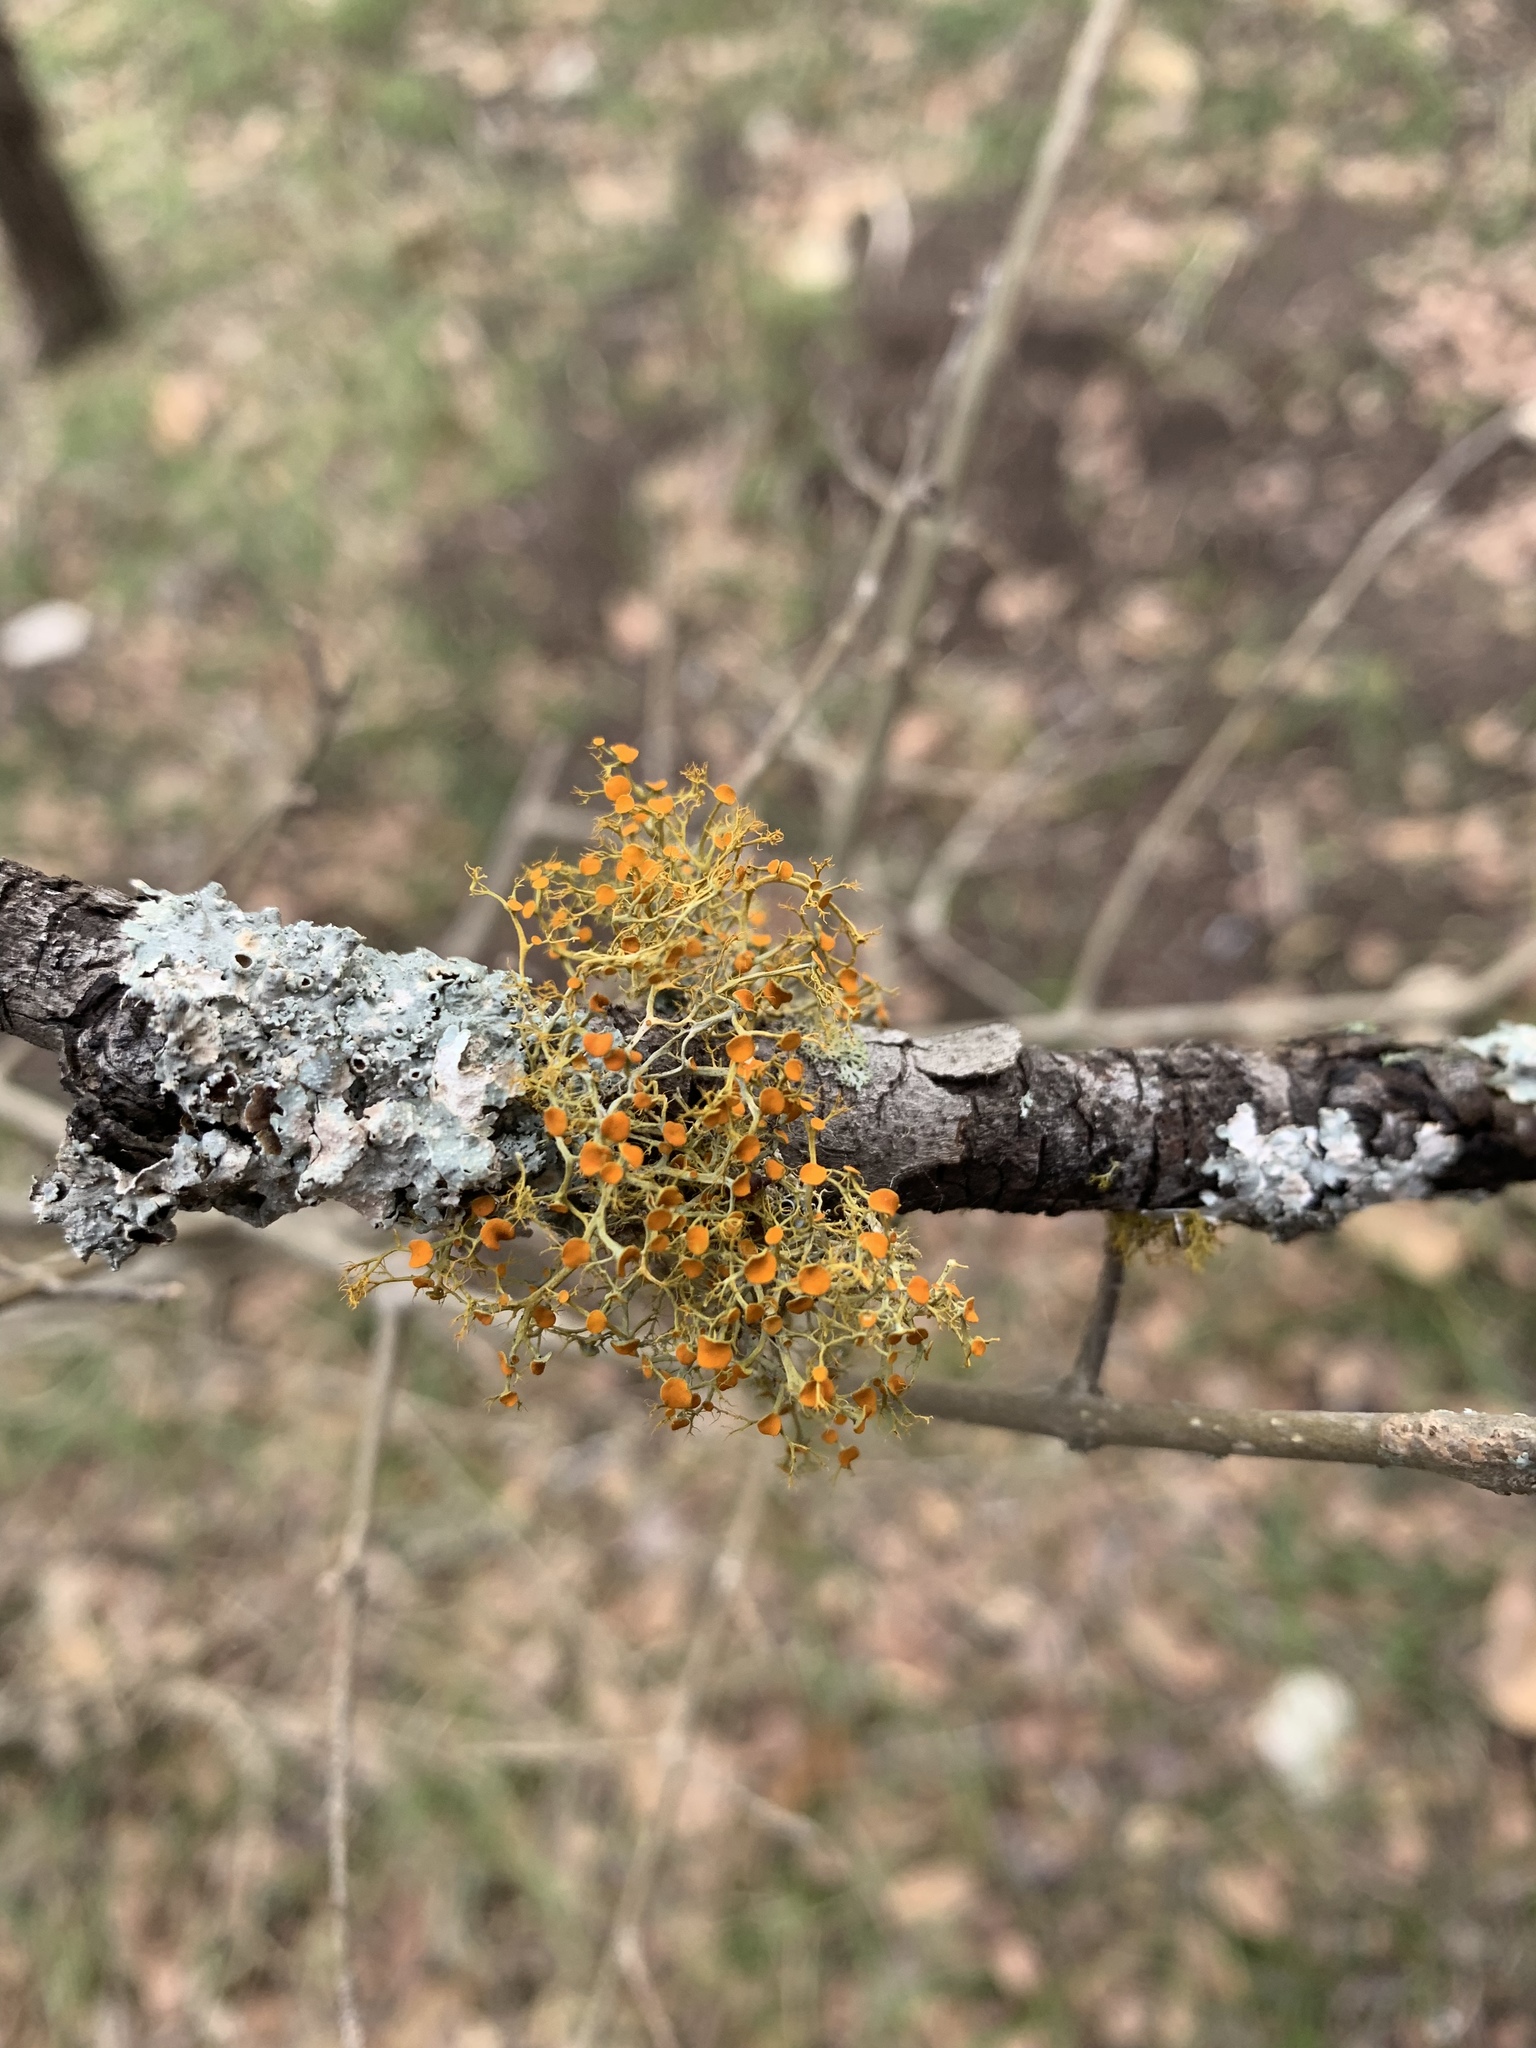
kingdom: Fungi
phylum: Ascomycota
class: Lecanoromycetes
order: Teloschistales
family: Teloschistaceae
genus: Teloschistes
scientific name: Teloschistes exilis
